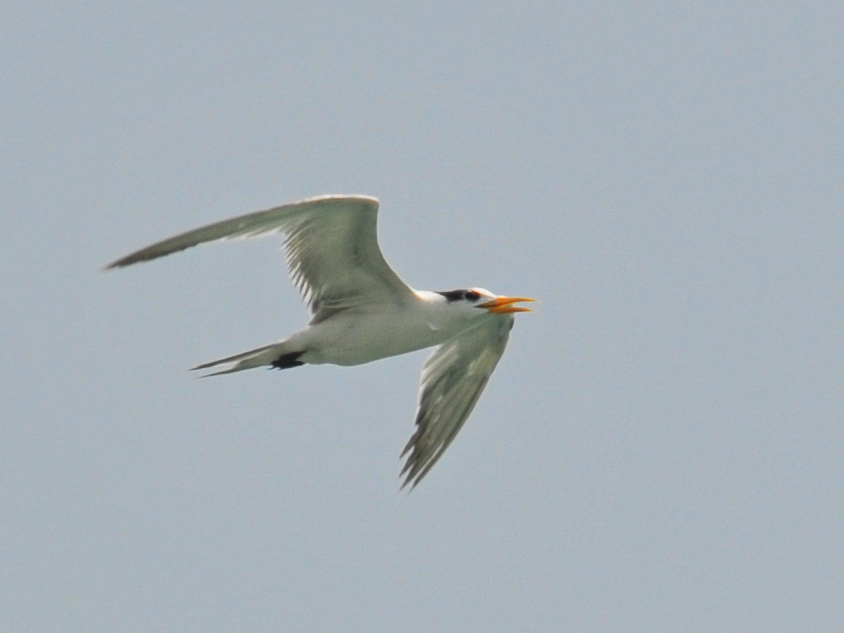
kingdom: Animalia
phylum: Chordata
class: Aves
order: Charadriiformes
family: Laridae
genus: Thalasseus
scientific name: Thalasseus bengalensis
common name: Lesser crested tern
